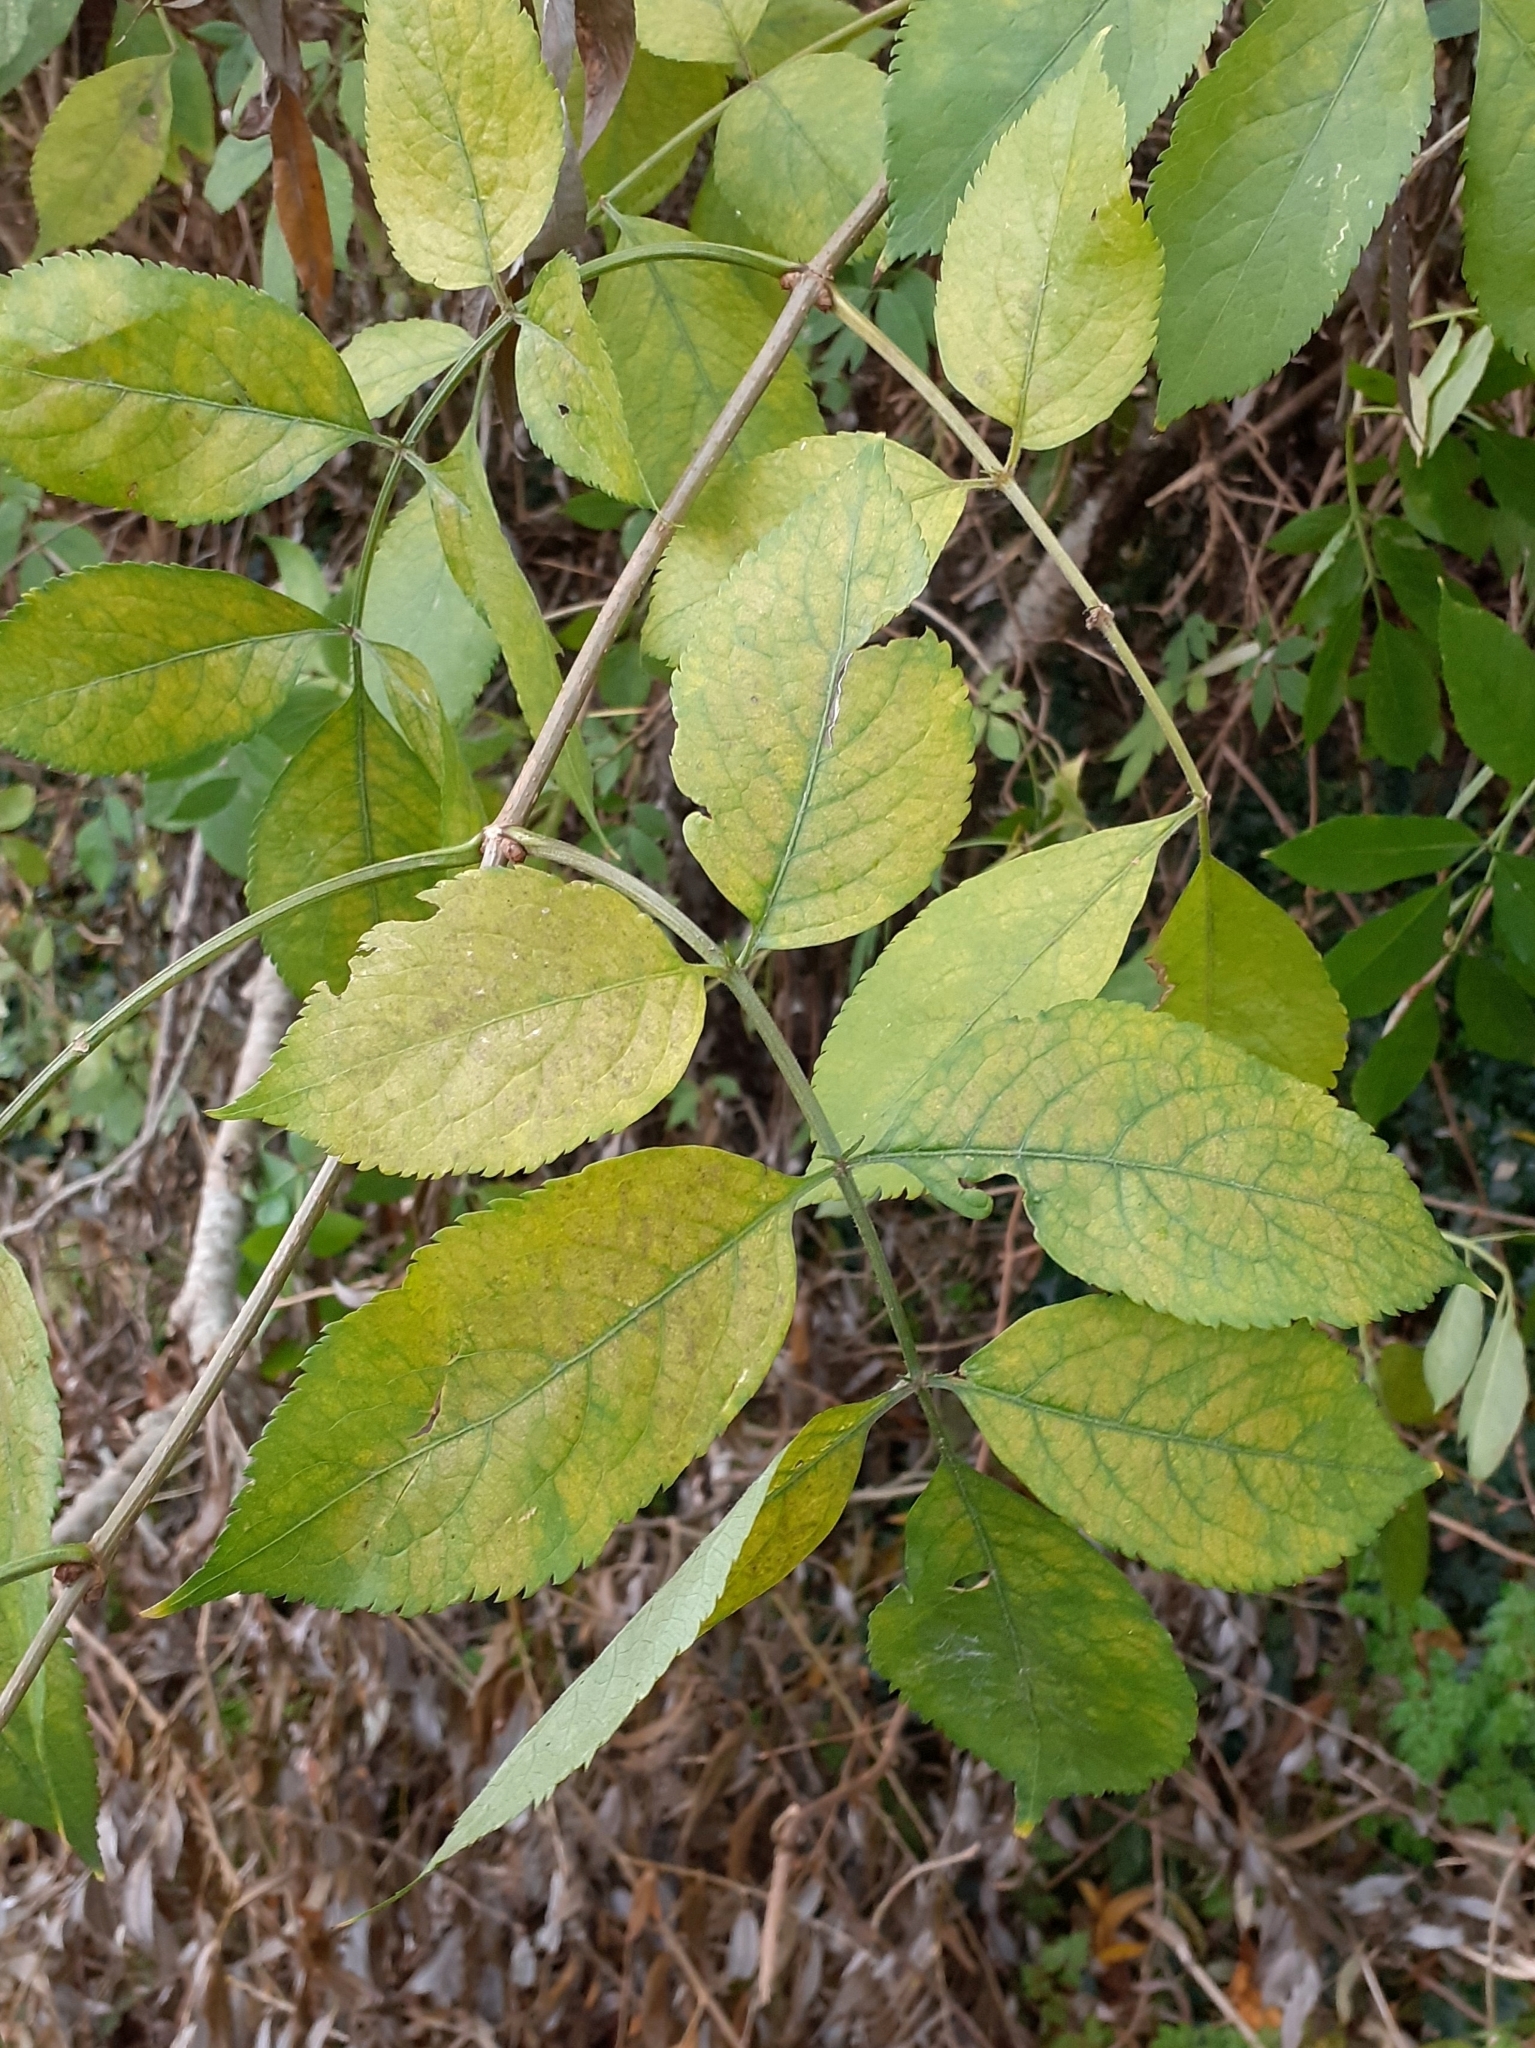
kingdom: Plantae
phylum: Tracheophyta
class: Magnoliopsida
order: Dipsacales
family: Viburnaceae
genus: Sambucus
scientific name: Sambucus nigra
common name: Elder
